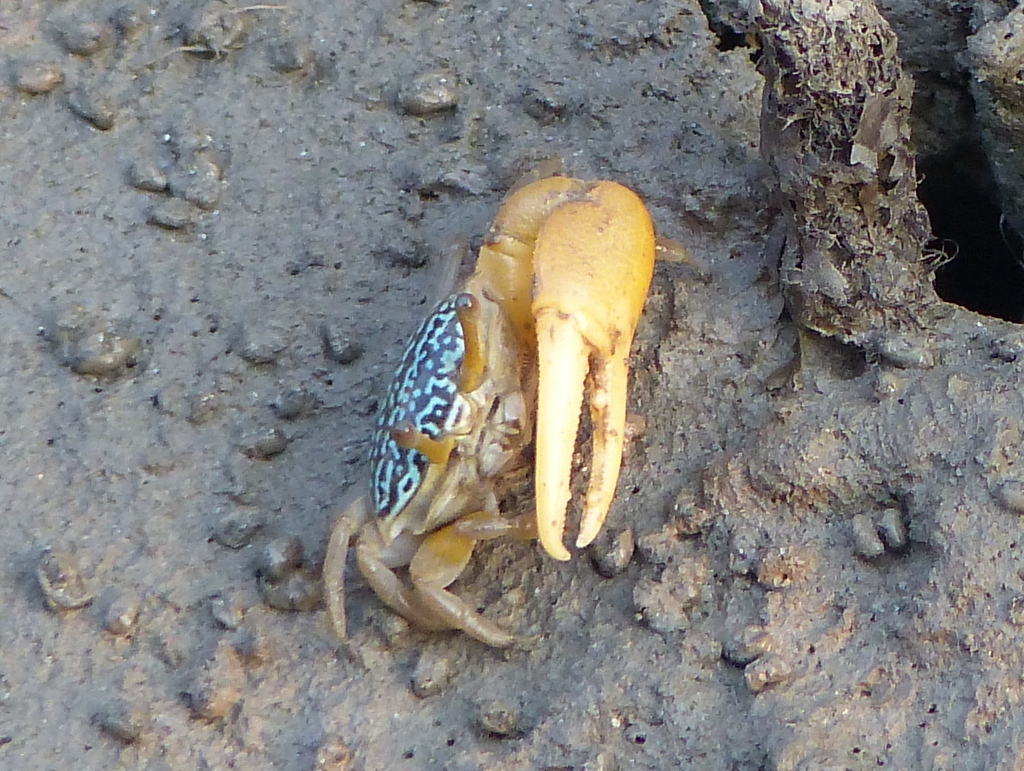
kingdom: Animalia
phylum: Arthropoda
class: Malacostraca
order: Decapoda
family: Ocypodidae
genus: Austruca
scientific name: Austruca variegata
